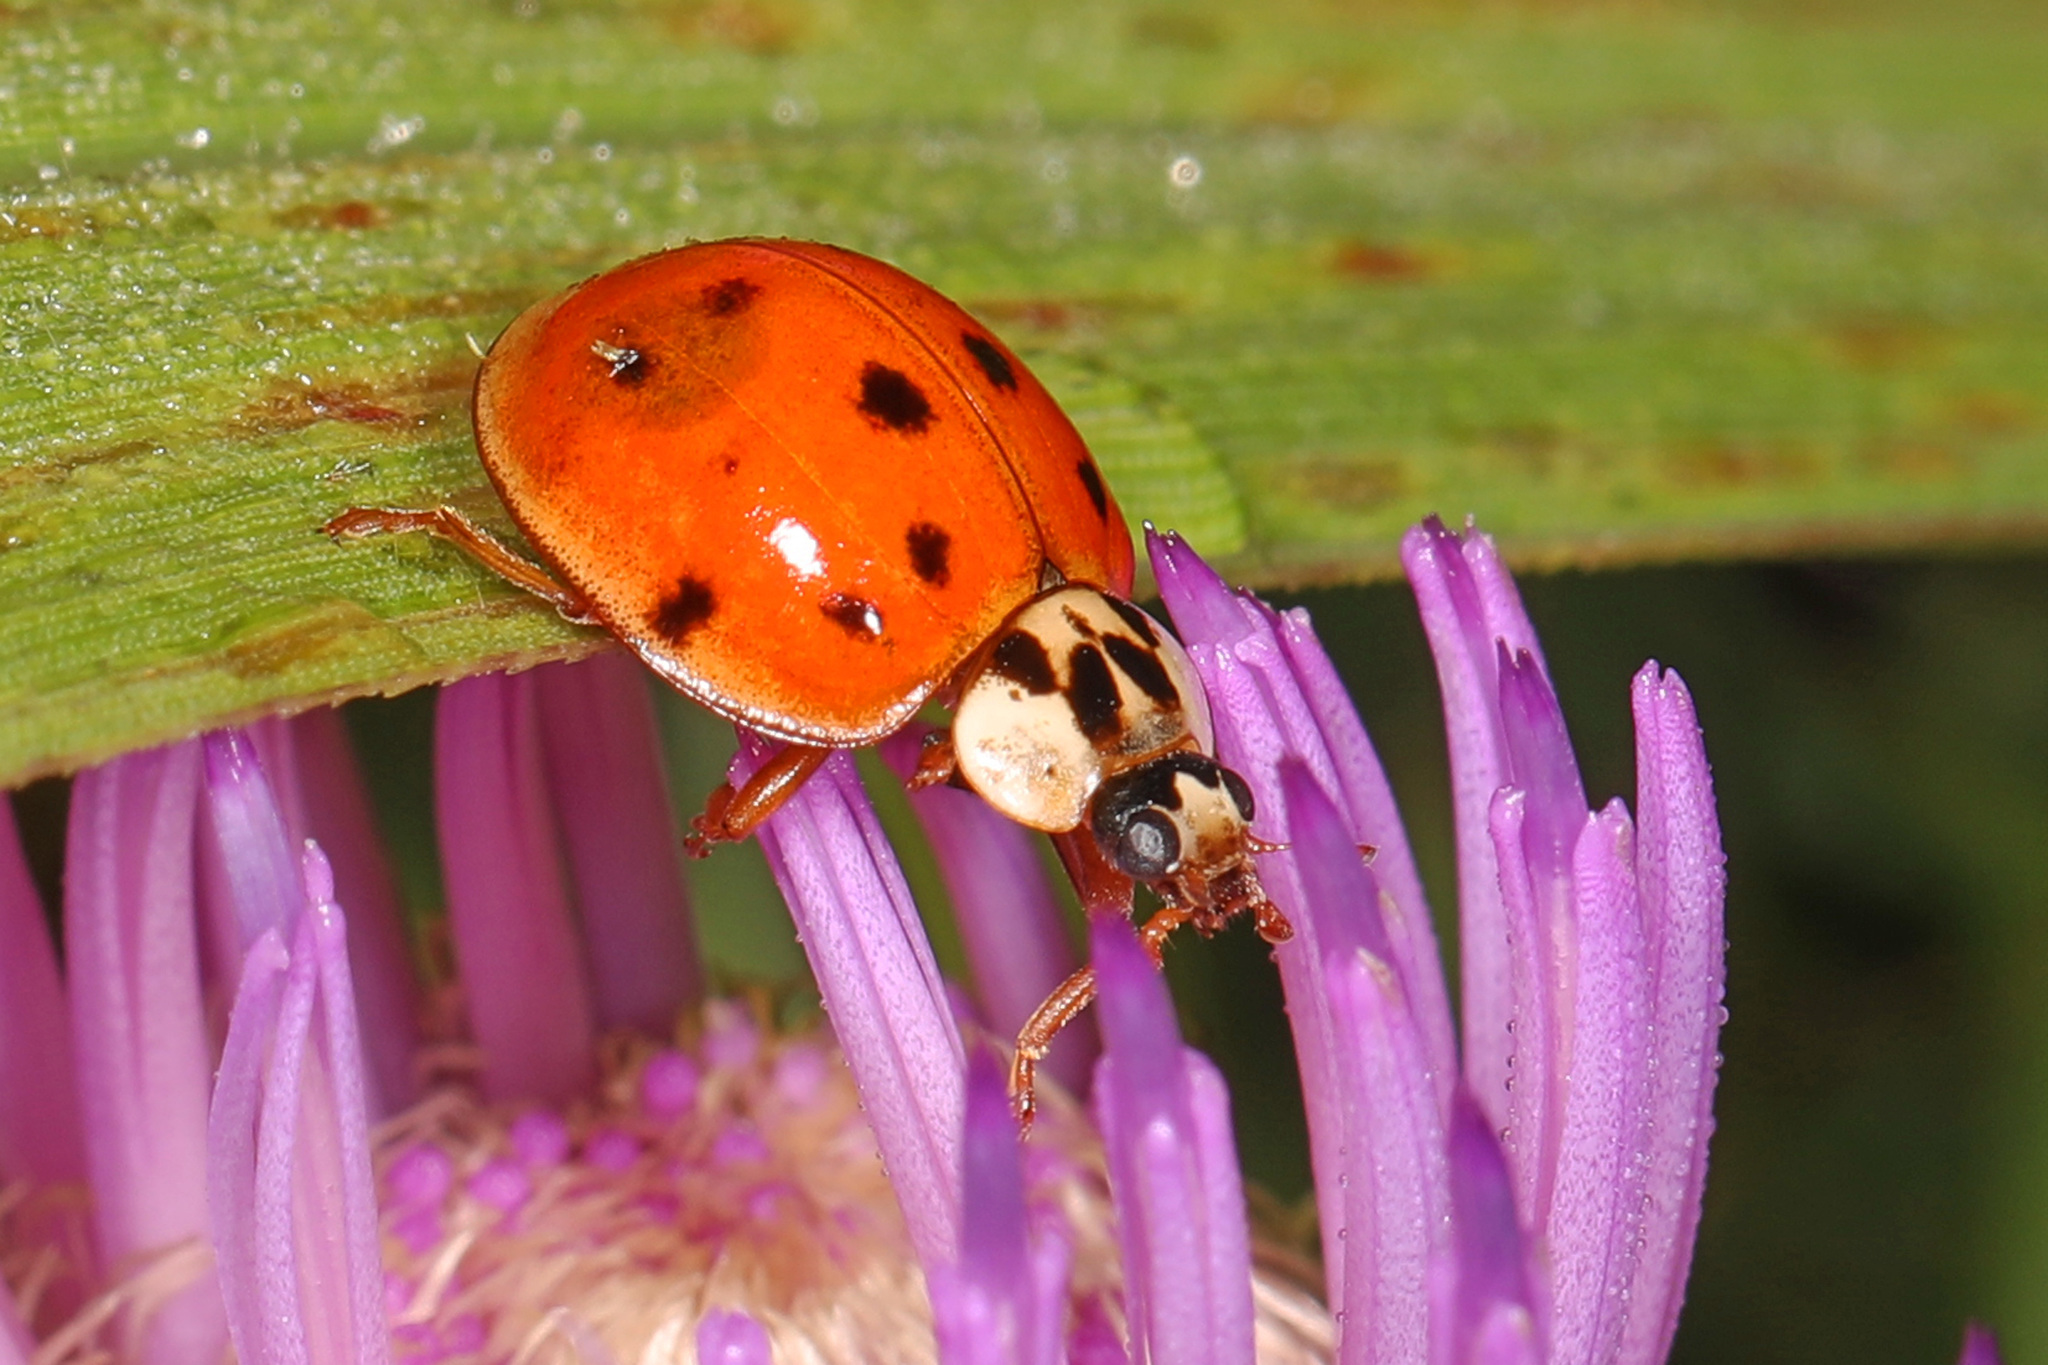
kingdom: Animalia
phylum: Arthropoda
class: Insecta
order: Coleoptera
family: Coccinellidae
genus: Harmonia
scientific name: Harmonia axyridis
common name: Harlequin ladybird
